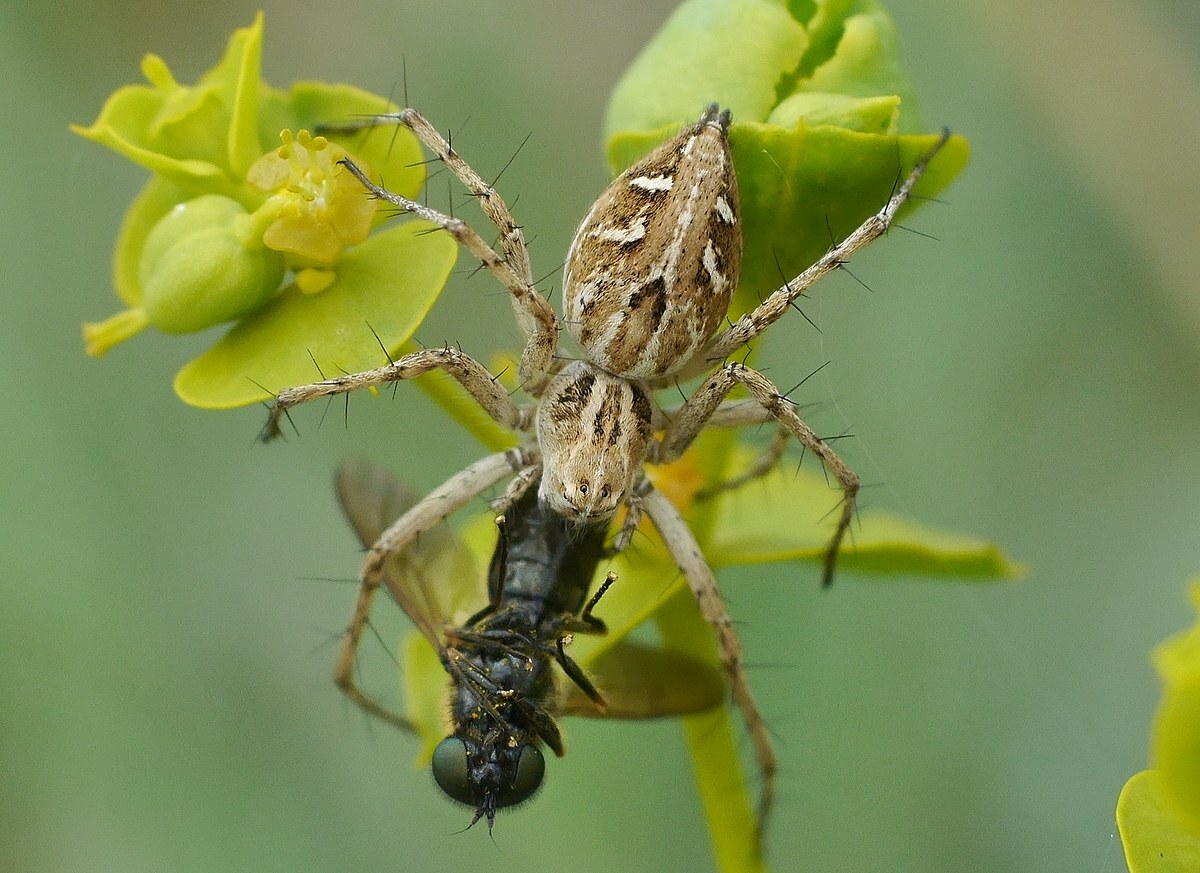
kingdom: Animalia
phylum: Arthropoda
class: Arachnida
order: Araneae
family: Oxyopidae
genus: Oxyopes
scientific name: Oxyopes heterophthalmus
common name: Lynx spider
